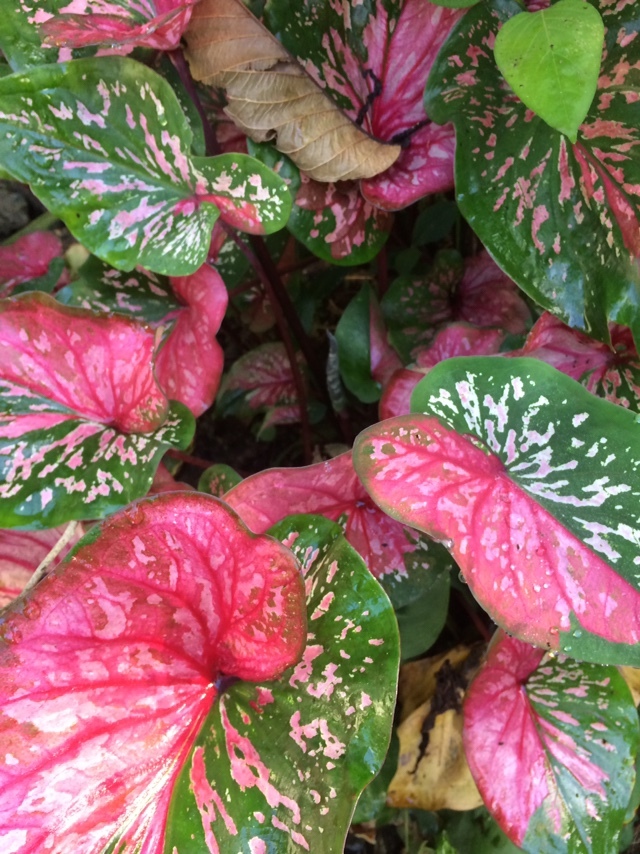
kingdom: Plantae
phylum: Tracheophyta
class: Liliopsida
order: Alismatales
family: Araceae
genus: Caladium
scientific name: Caladium bicolor
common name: Artist's pallet
